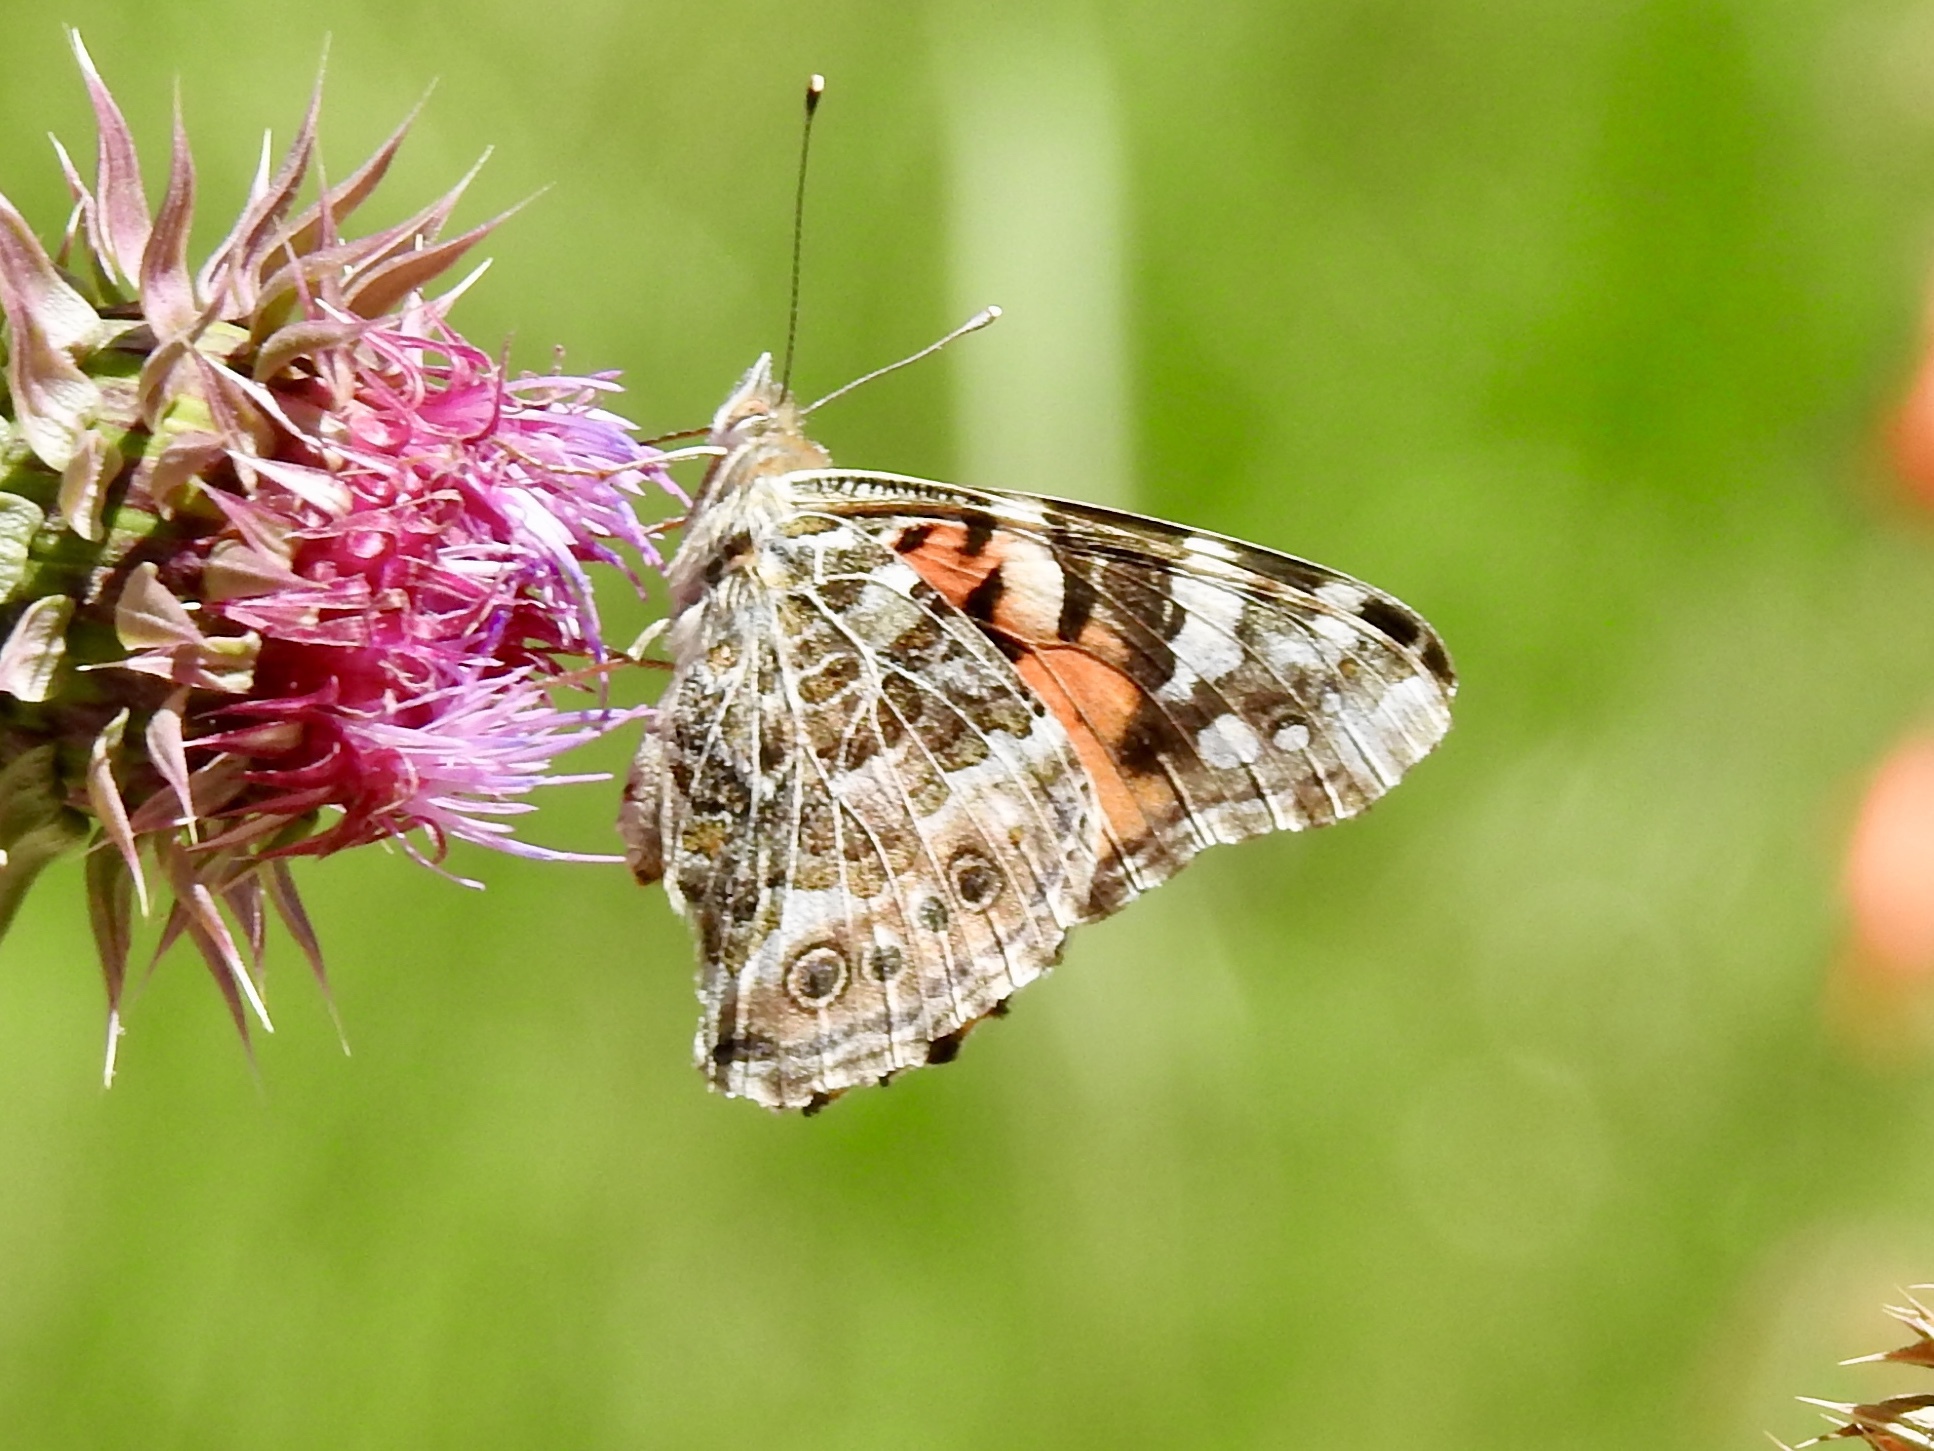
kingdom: Animalia
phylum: Arthropoda
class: Insecta
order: Lepidoptera
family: Nymphalidae
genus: Vanessa
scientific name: Vanessa cardui
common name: Painted lady
